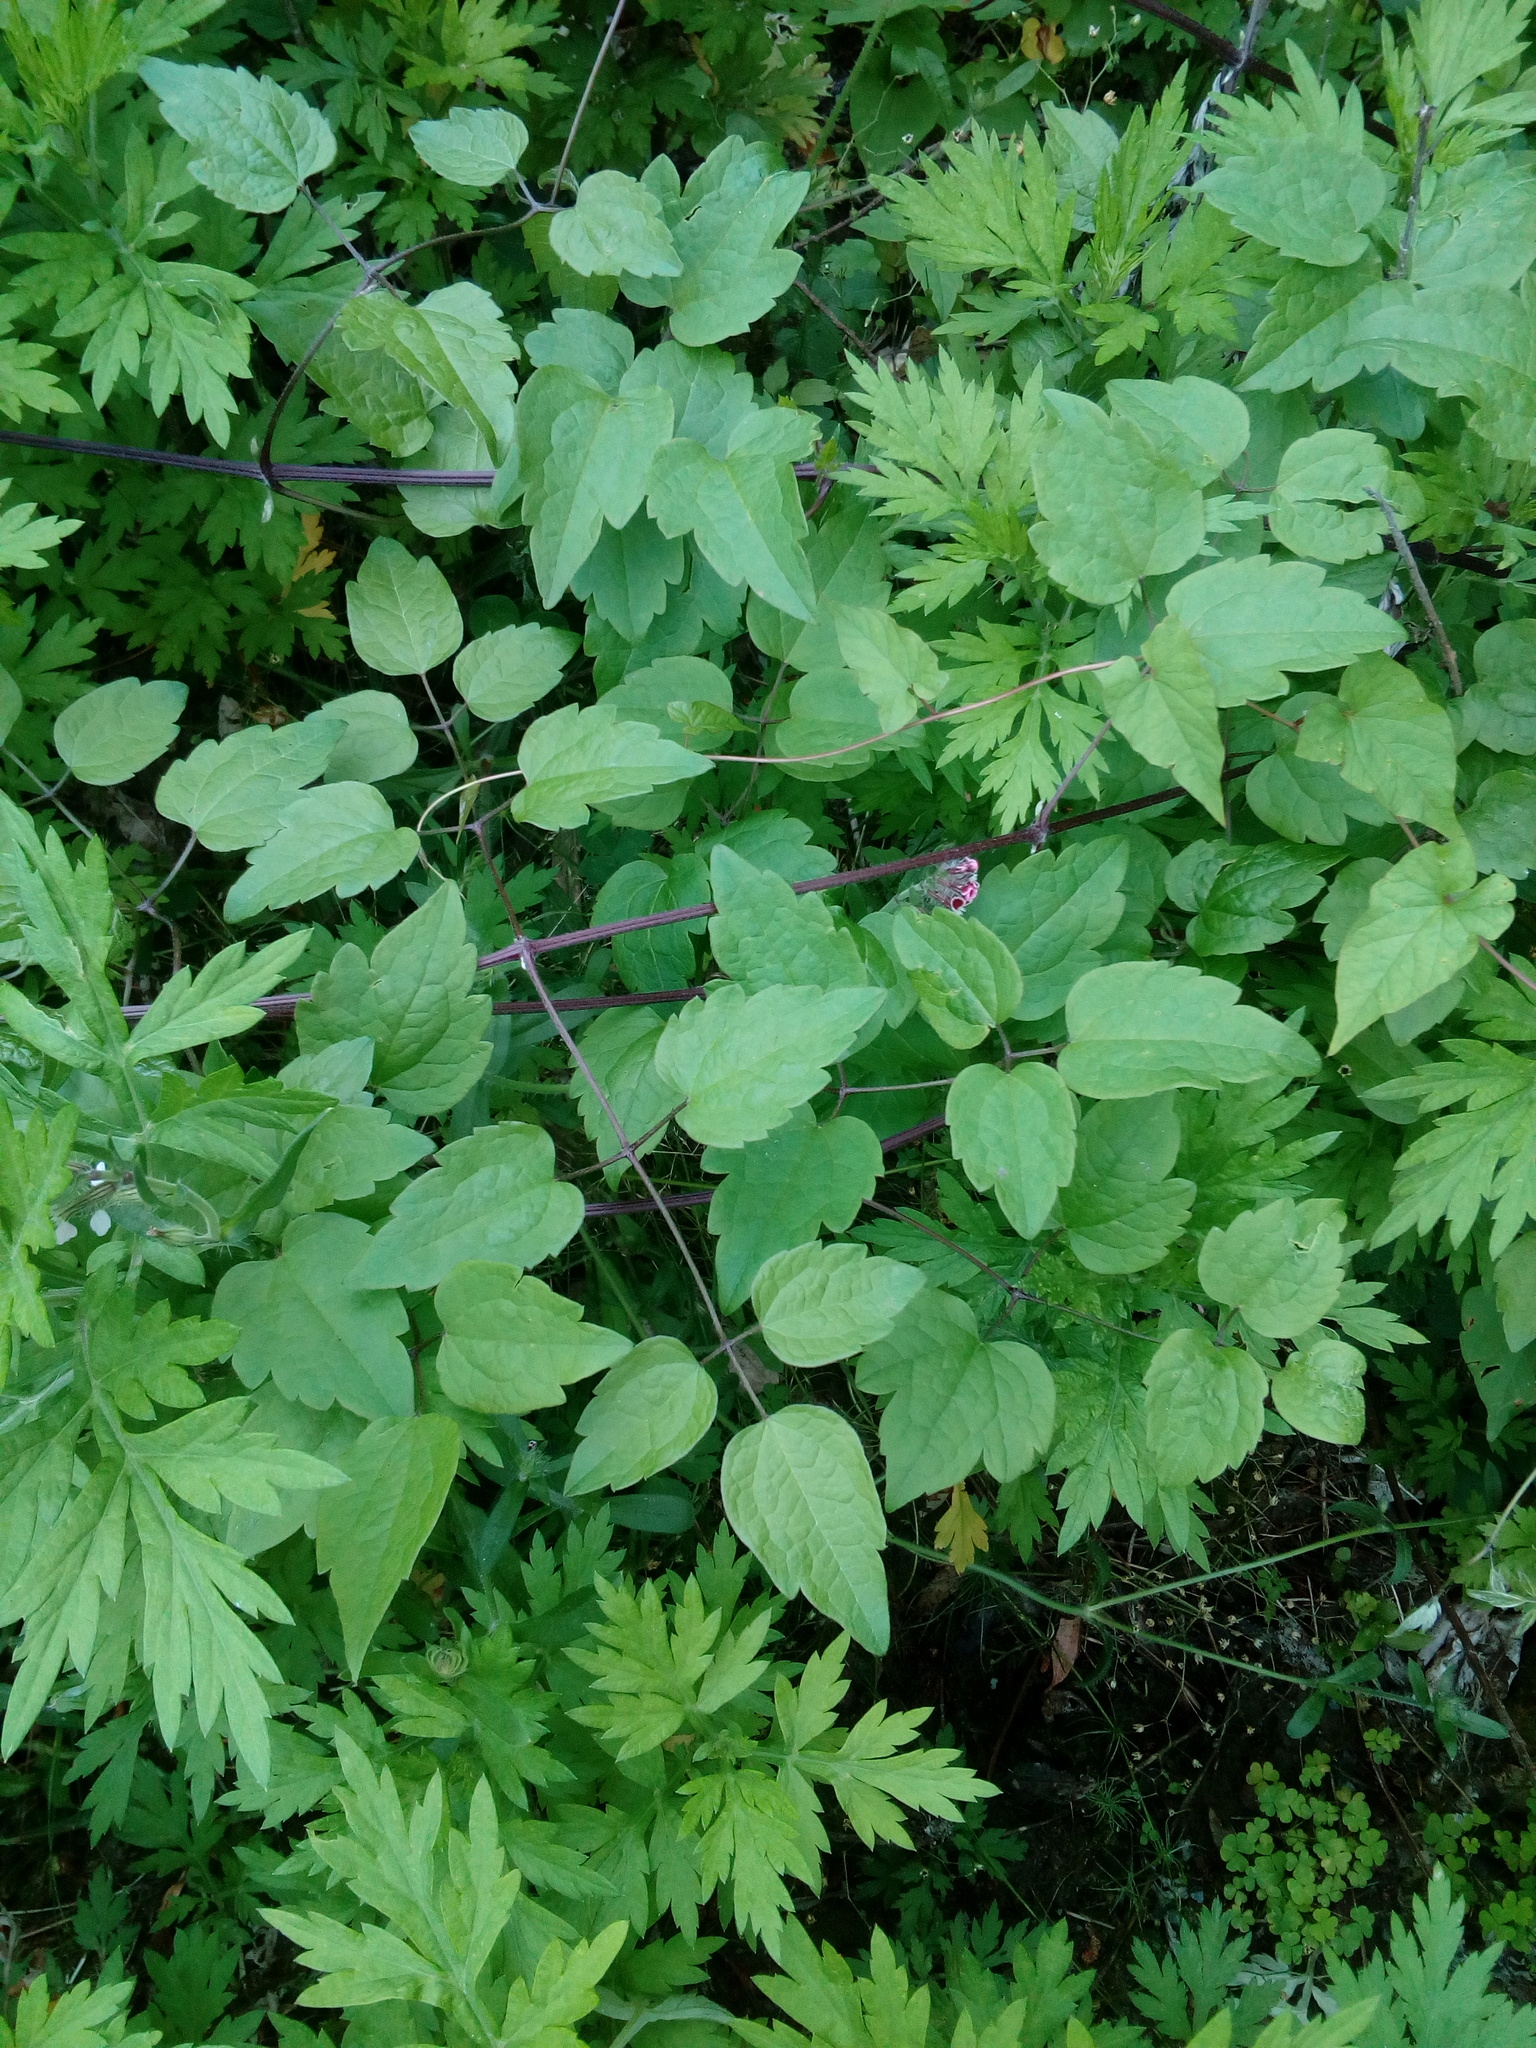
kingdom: Plantae
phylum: Tracheophyta
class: Magnoliopsida
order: Ranunculales
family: Ranunculaceae
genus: Clematis
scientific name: Clematis vitalba
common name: Evergreen clematis
